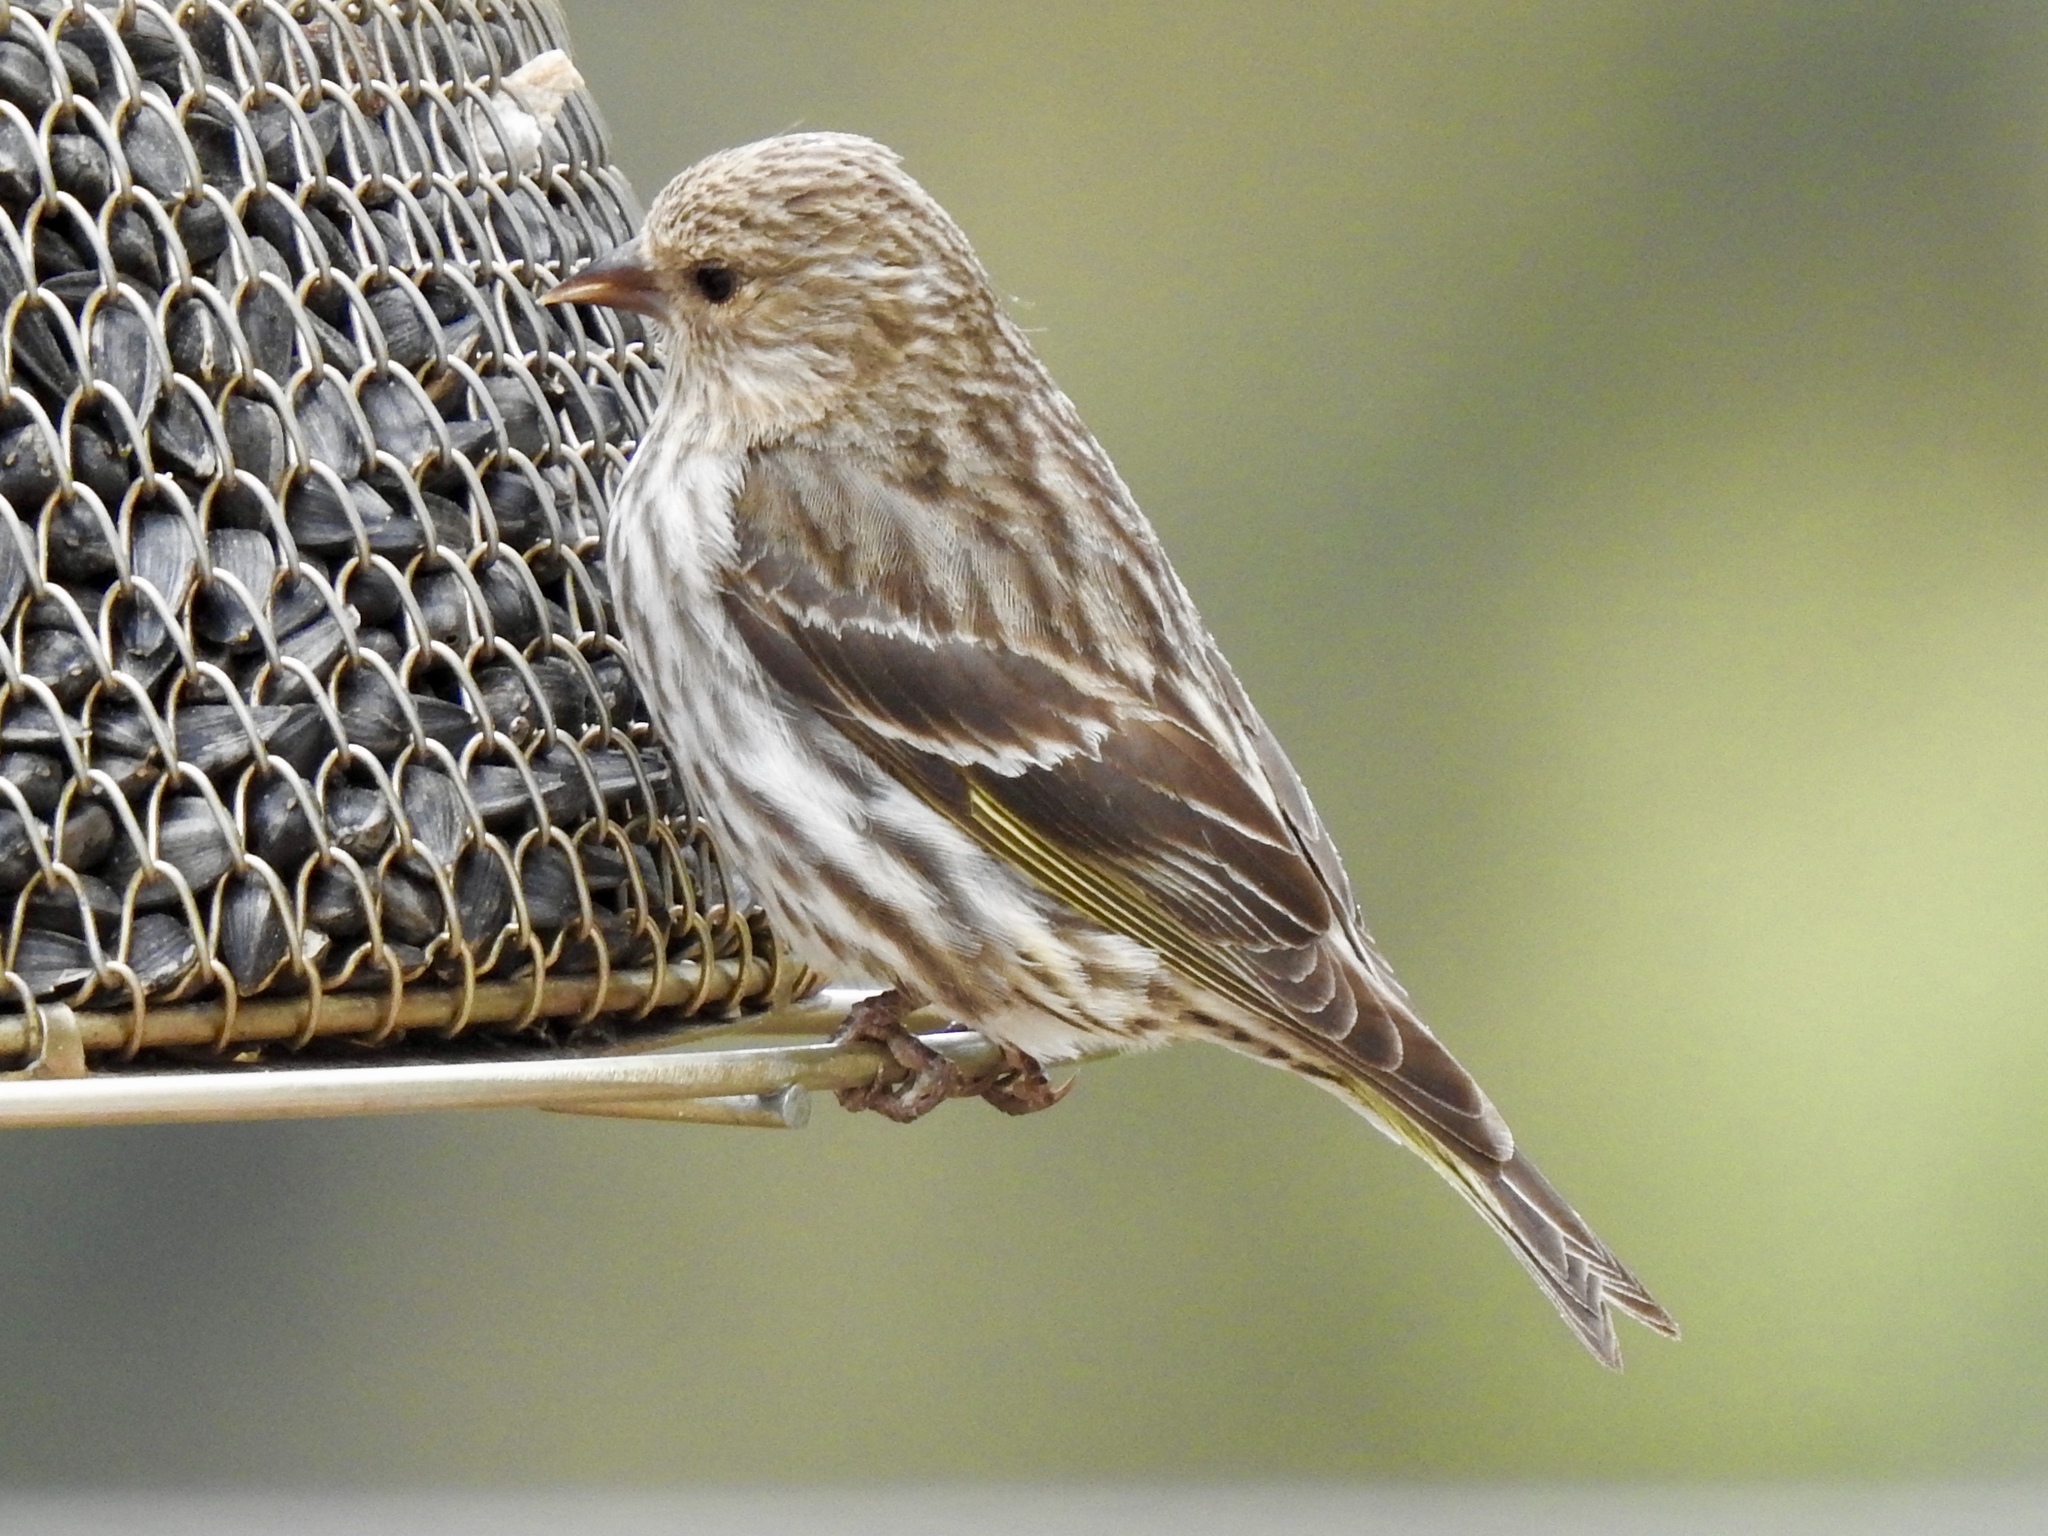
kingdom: Animalia
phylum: Chordata
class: Aves
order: Passeriformes
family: Fringillidae
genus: Spinus
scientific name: Spinus pinus
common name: Pine siskin
